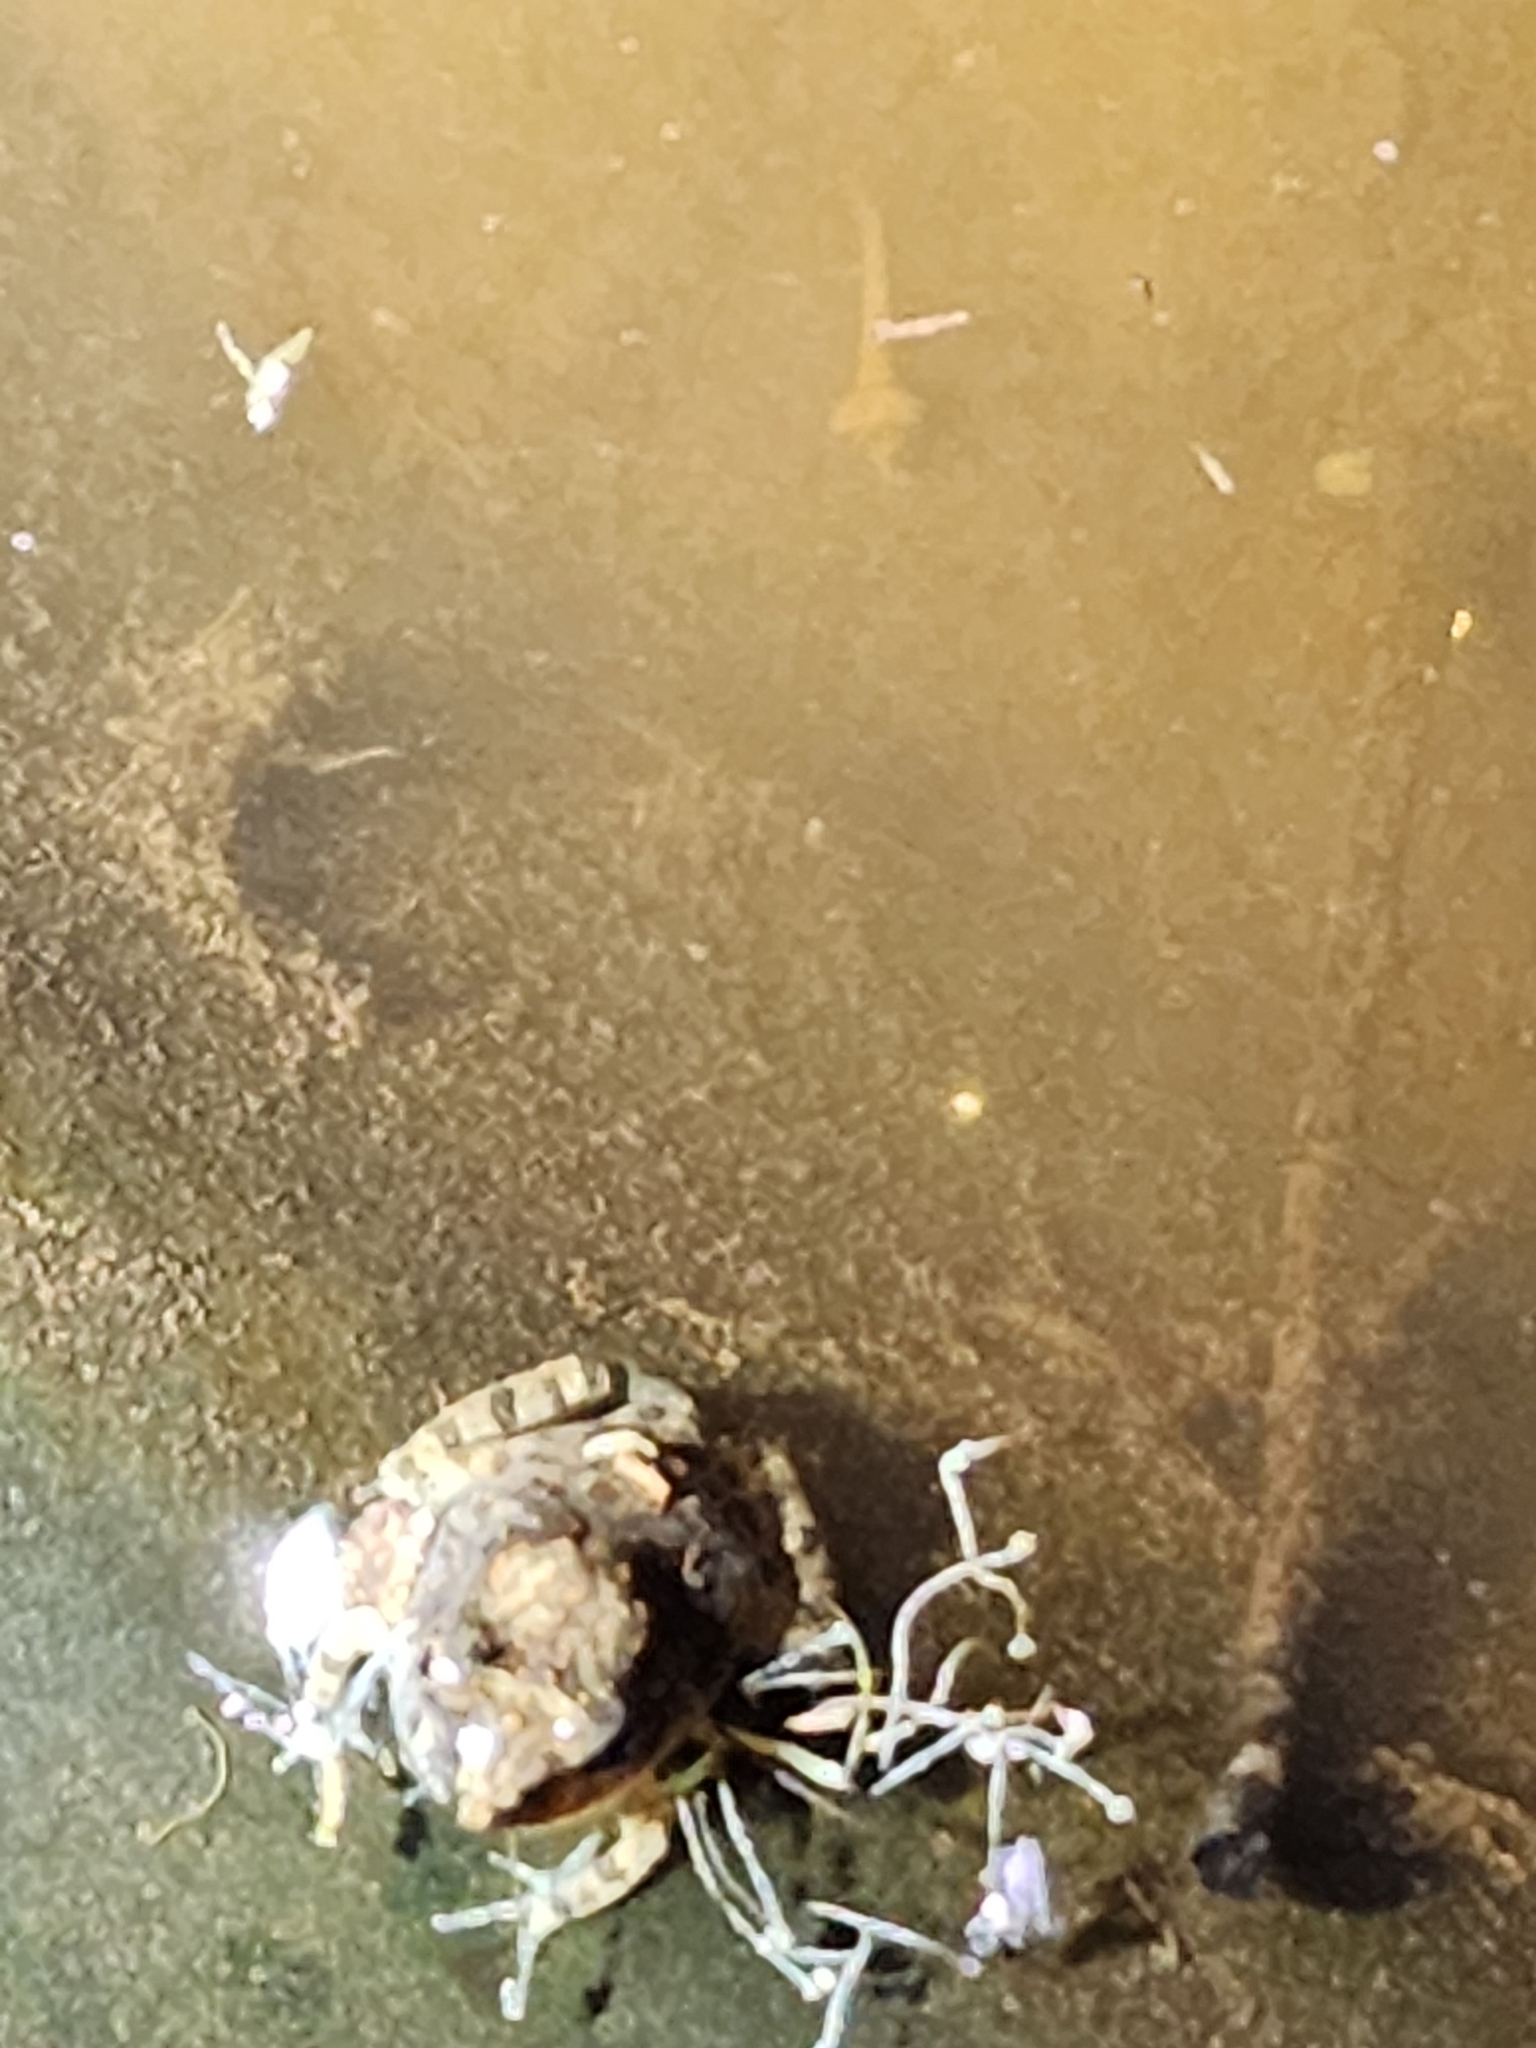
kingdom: Animalia
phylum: Chordata
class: Amphibia
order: Anura
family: Limnodynastidae
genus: Platyplectrum
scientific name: Platyplectrum ornatum
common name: Ornate burrowing frog
